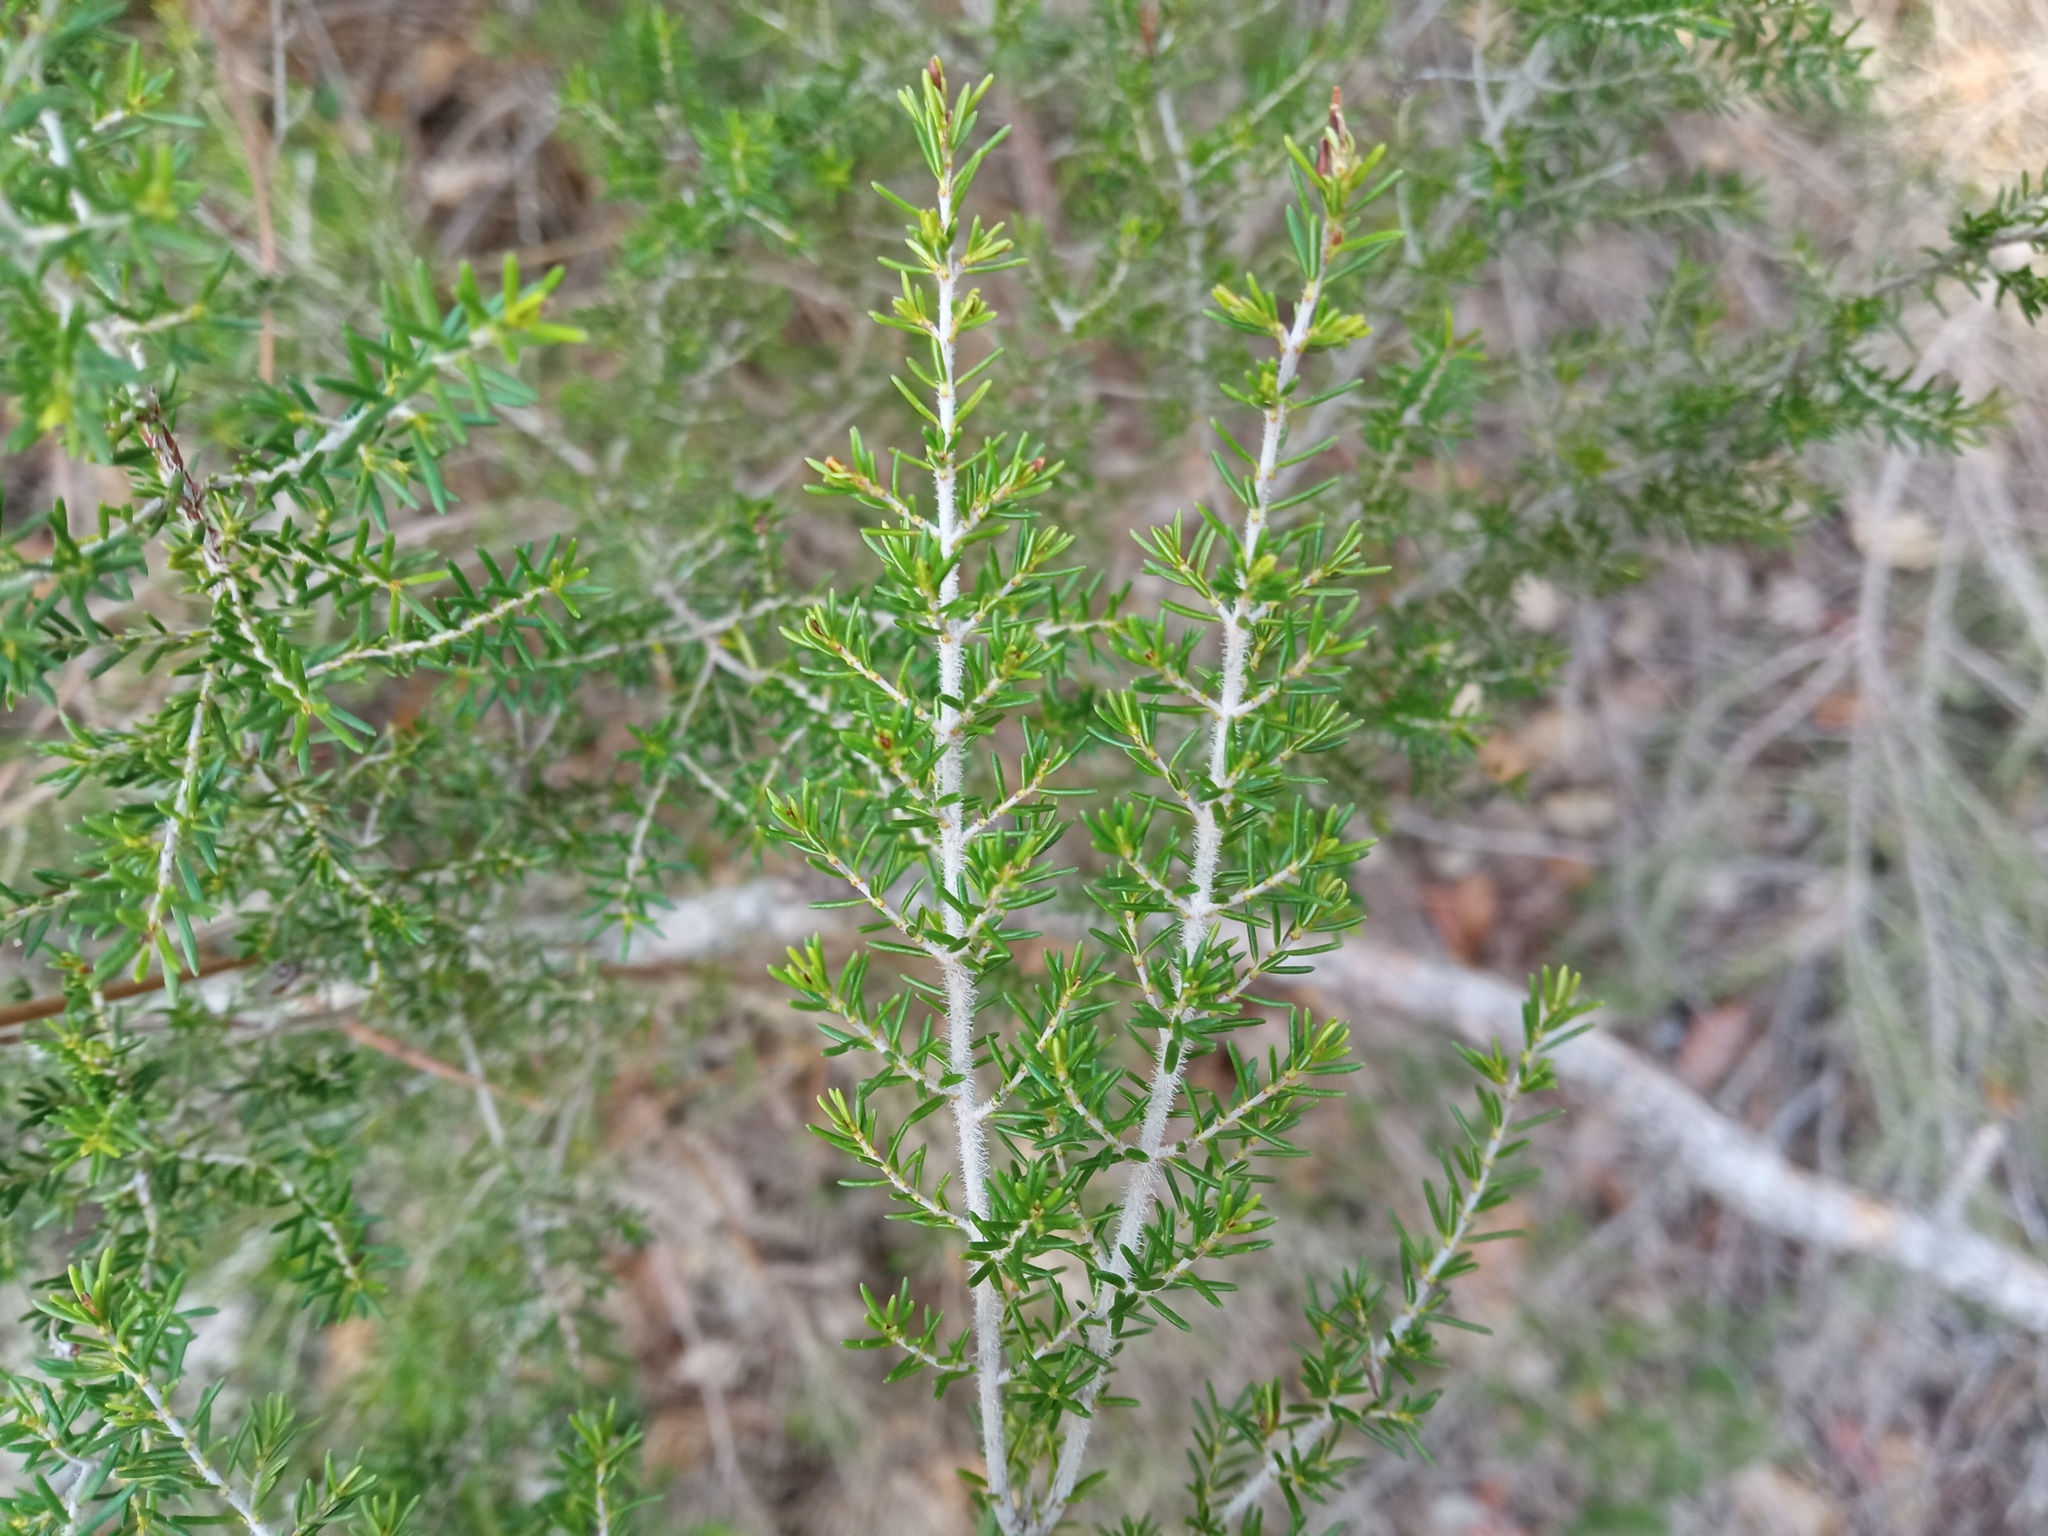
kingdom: Plantae
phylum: Tracheophyta
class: Magnoliopsida
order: Ericales
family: Ericaceae
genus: Erica
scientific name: Erica arborea
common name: Tree heath
